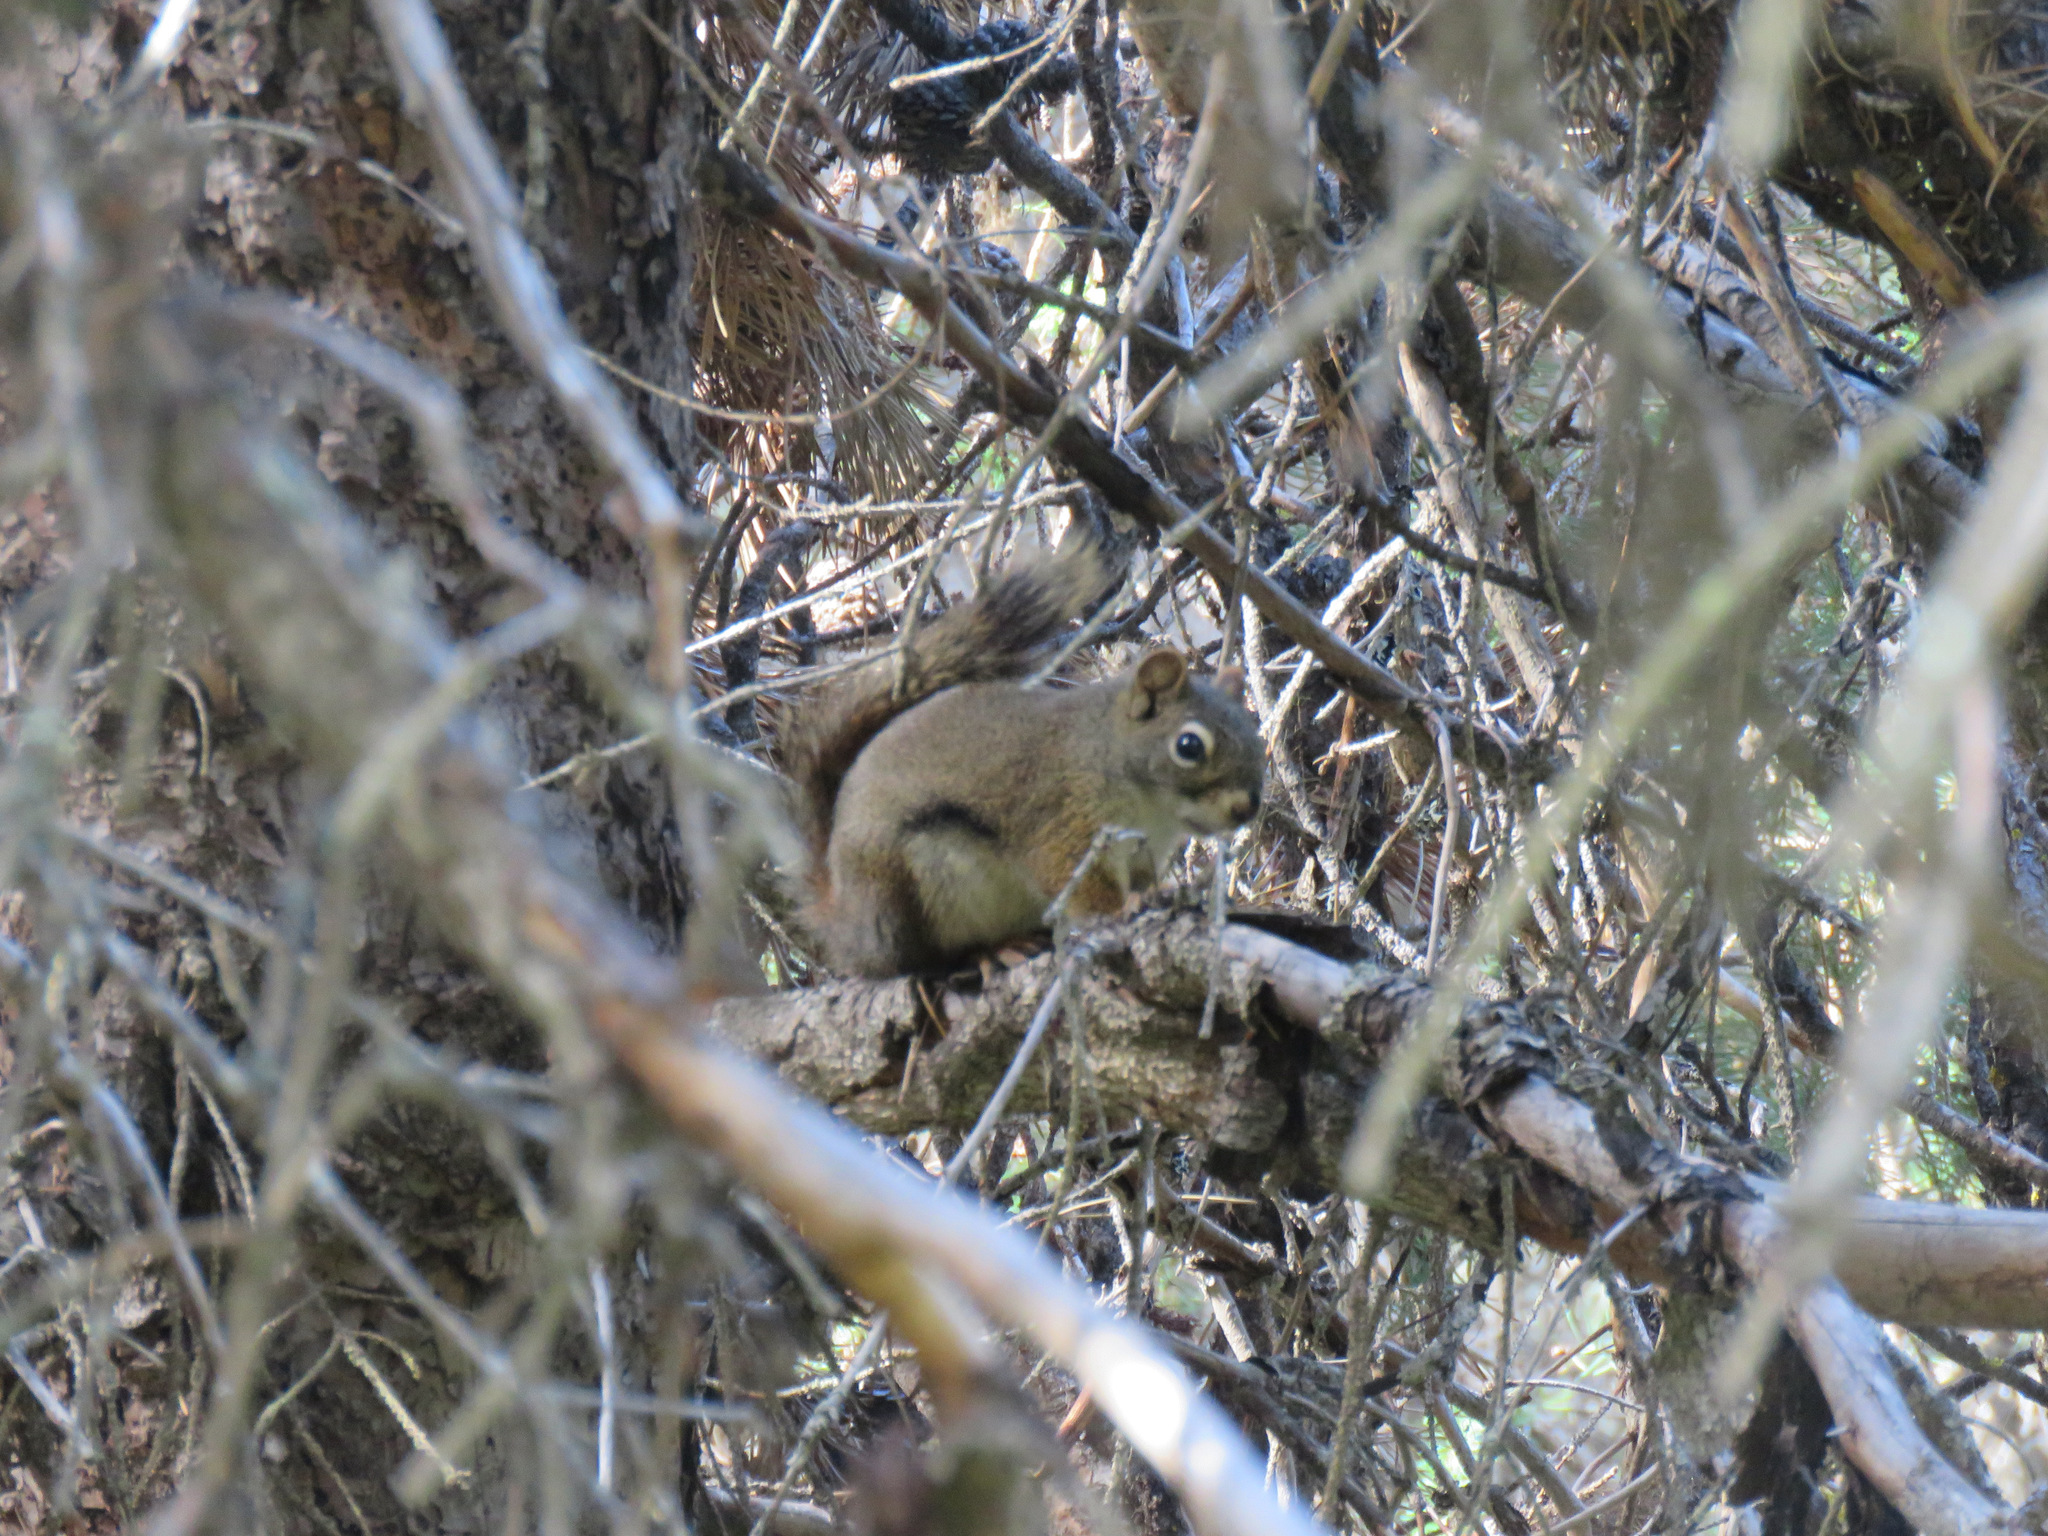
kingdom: Animalia
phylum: Chordata
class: Mammalia
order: Rodentia
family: Sciuridae
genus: Tamiasciurus
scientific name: Tamiasciurus hudsonicus
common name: Red squirrel
